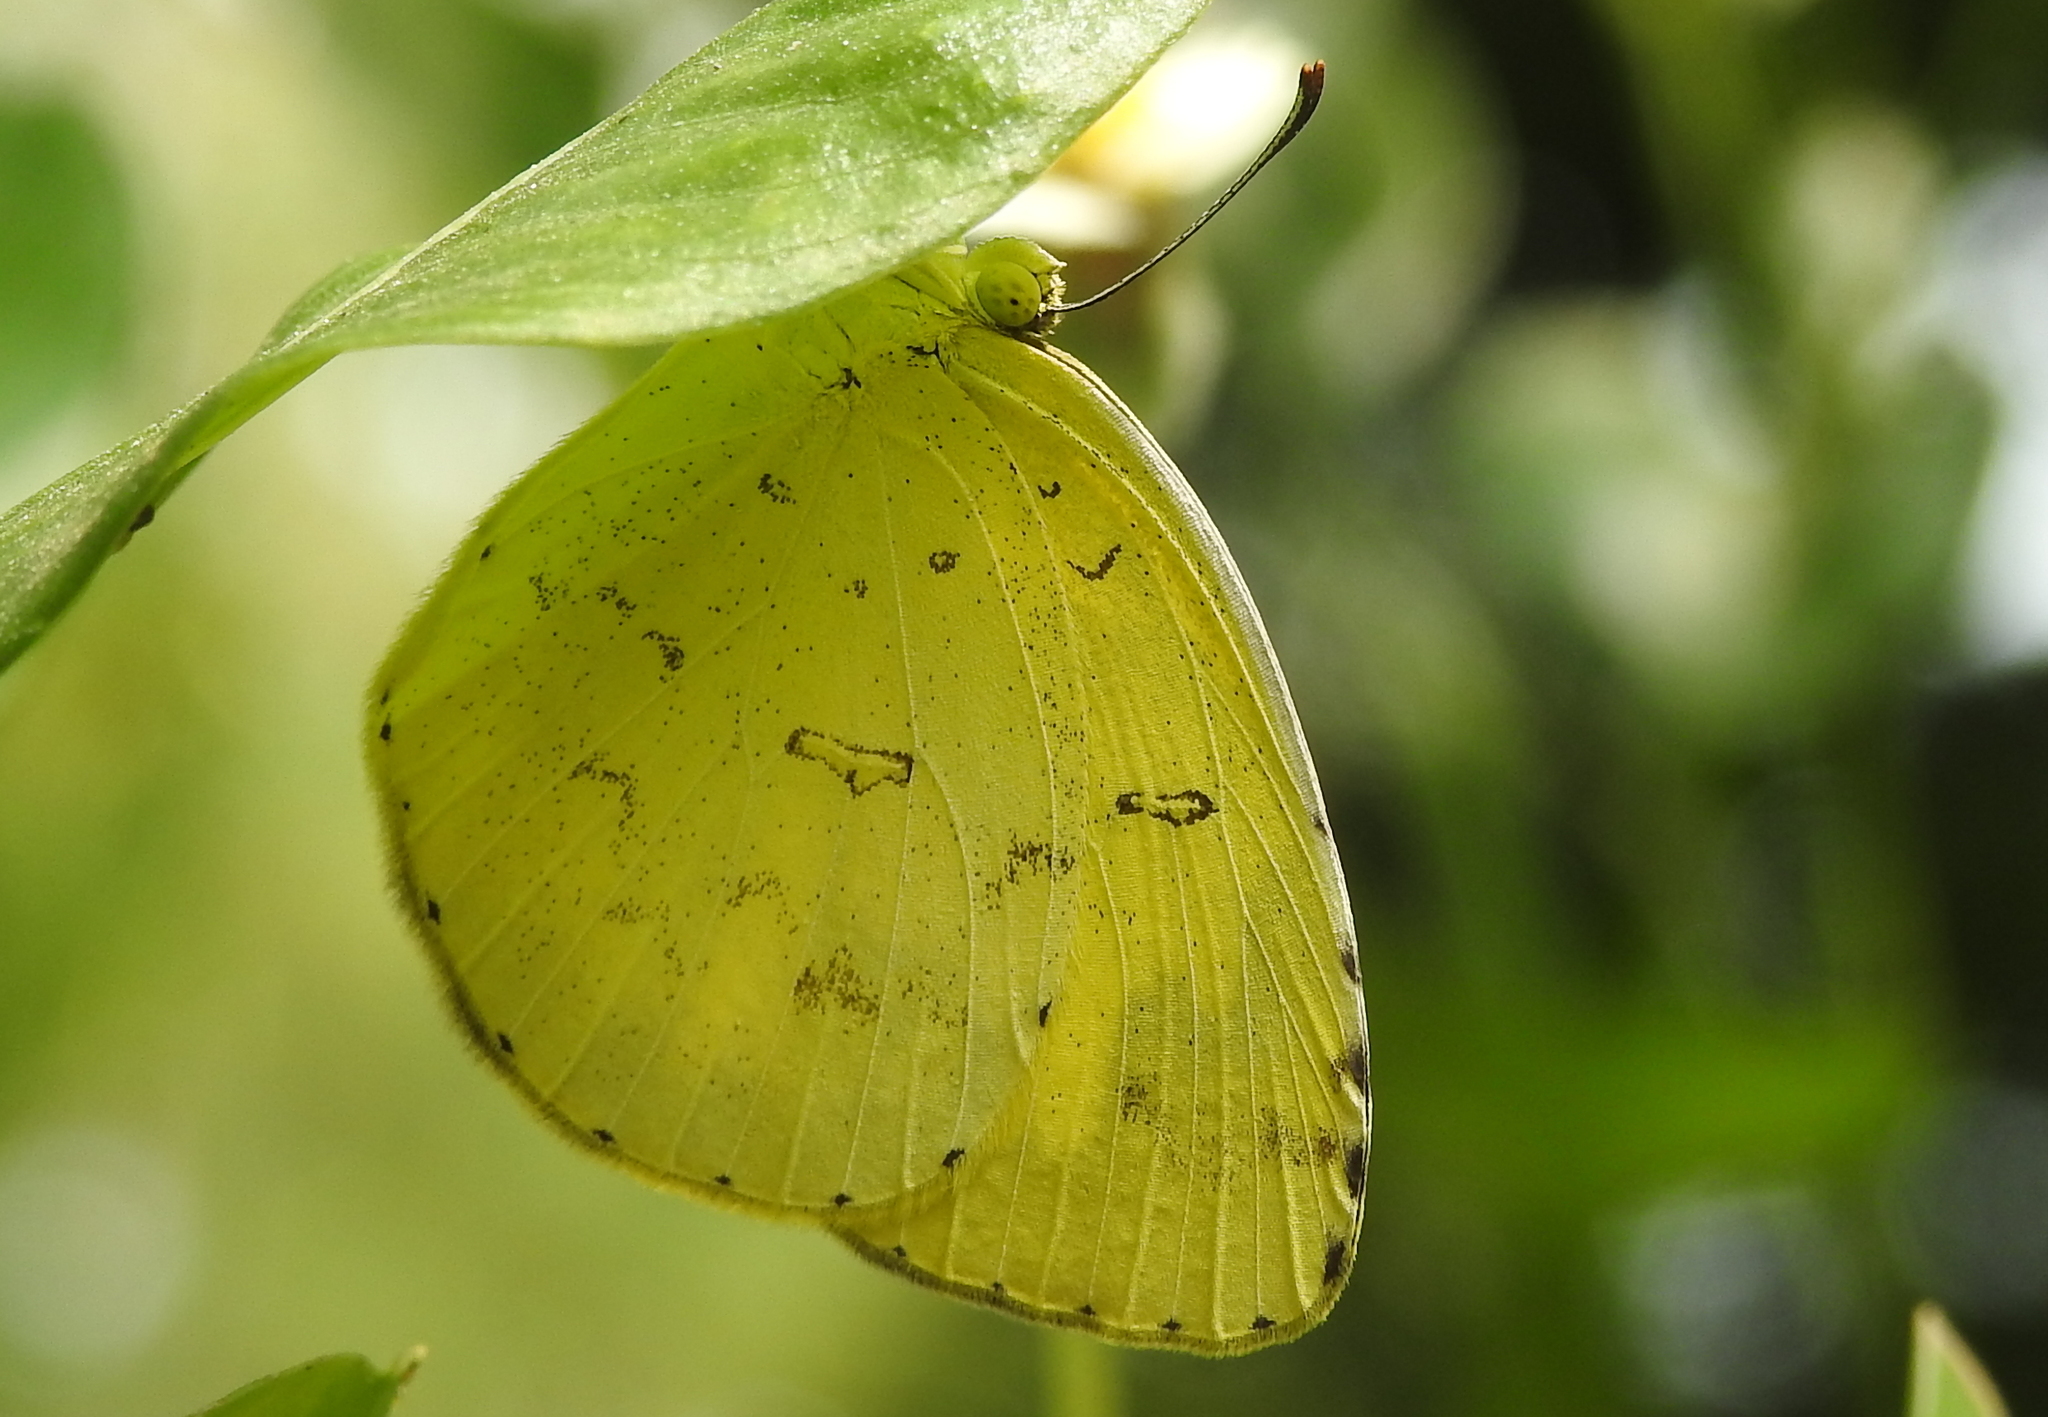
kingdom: Animalia
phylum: Arthropoda
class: Insecta
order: Lepidoptera
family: Pieridae
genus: Eurema
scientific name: Eurema hecabe
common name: Pale grass yellow
